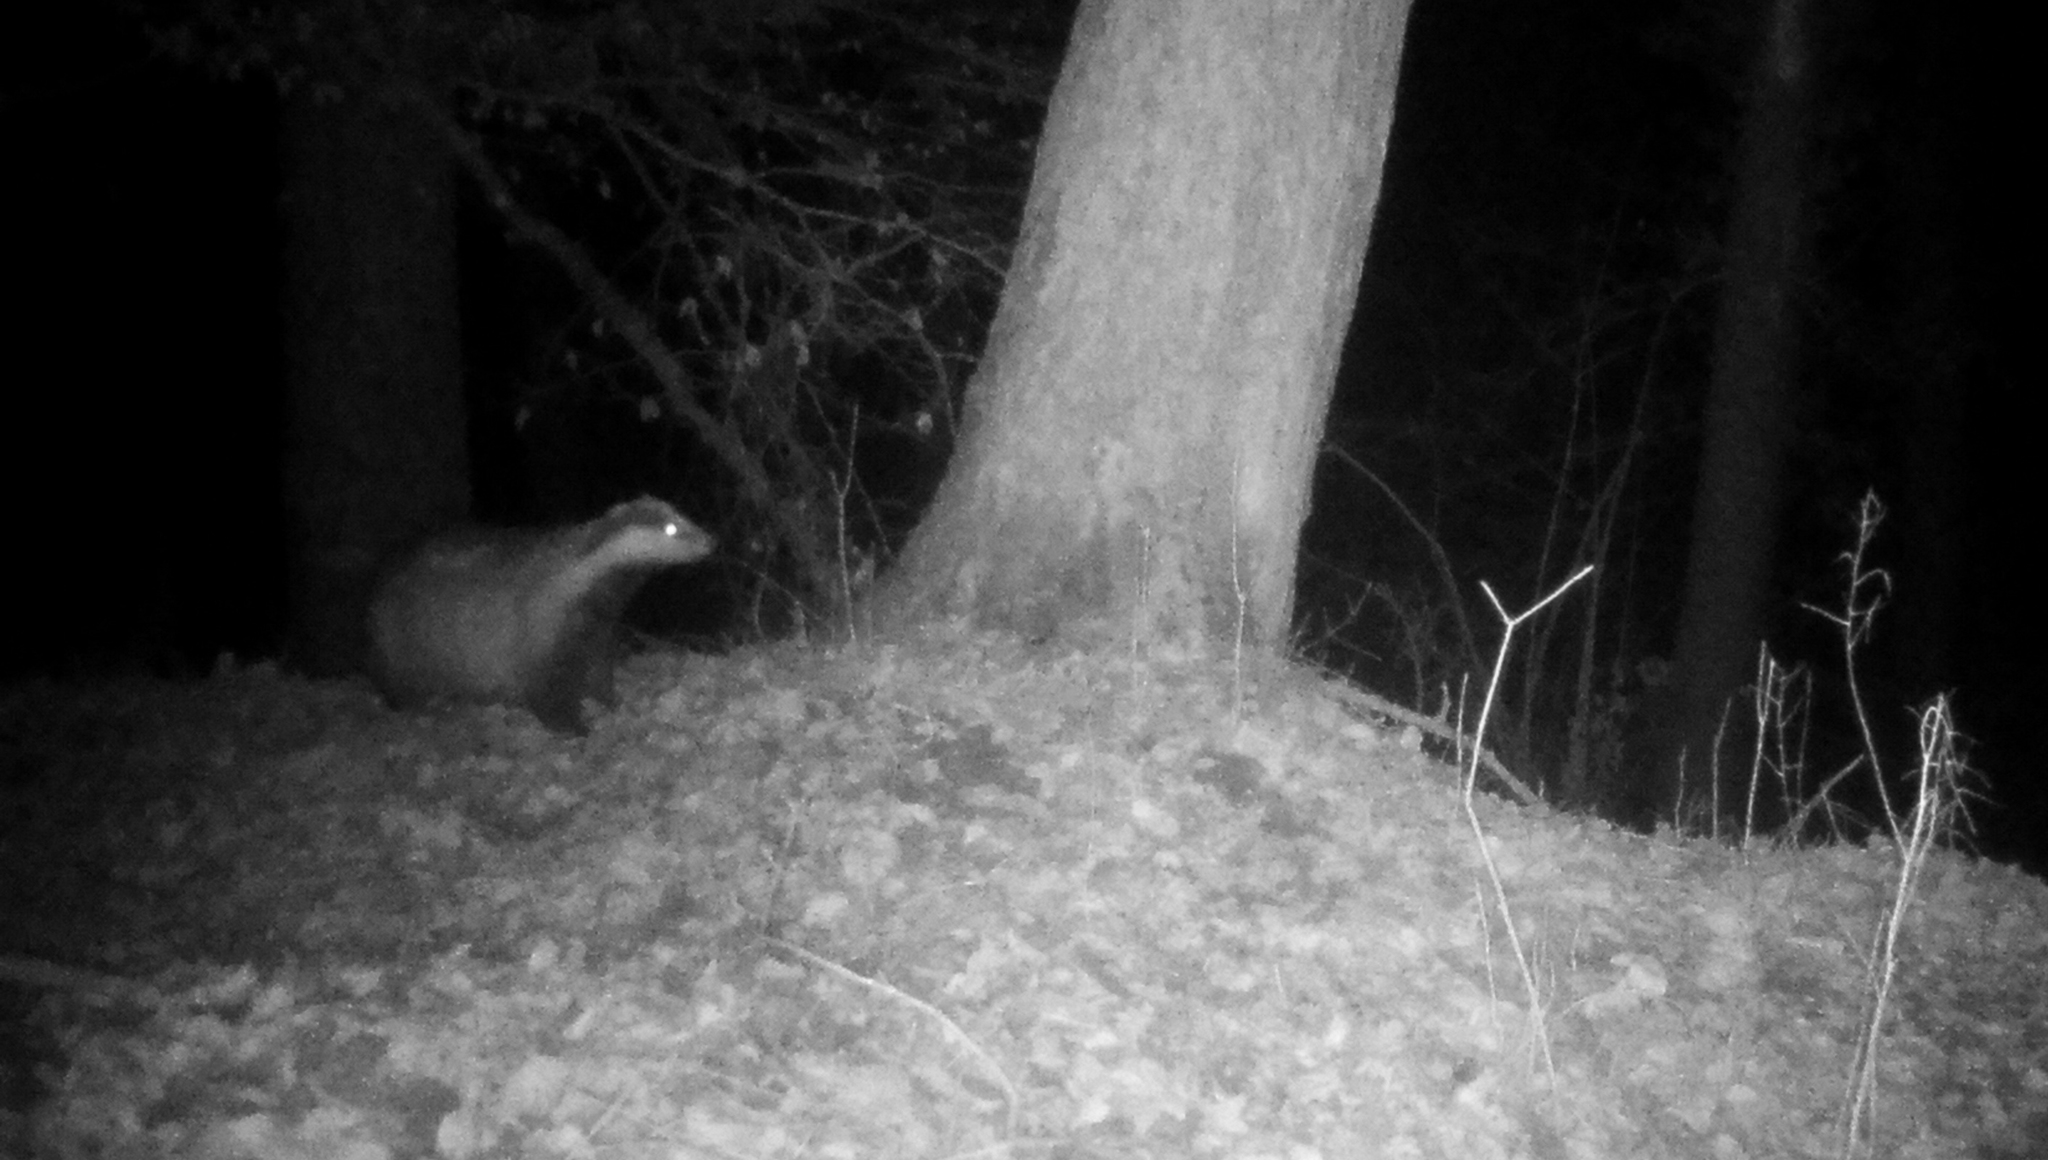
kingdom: Animalia
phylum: Chordata
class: Mammalia
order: Carnivora
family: Mustelidae
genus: Meles
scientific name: Meles meles
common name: Eurasian badger
